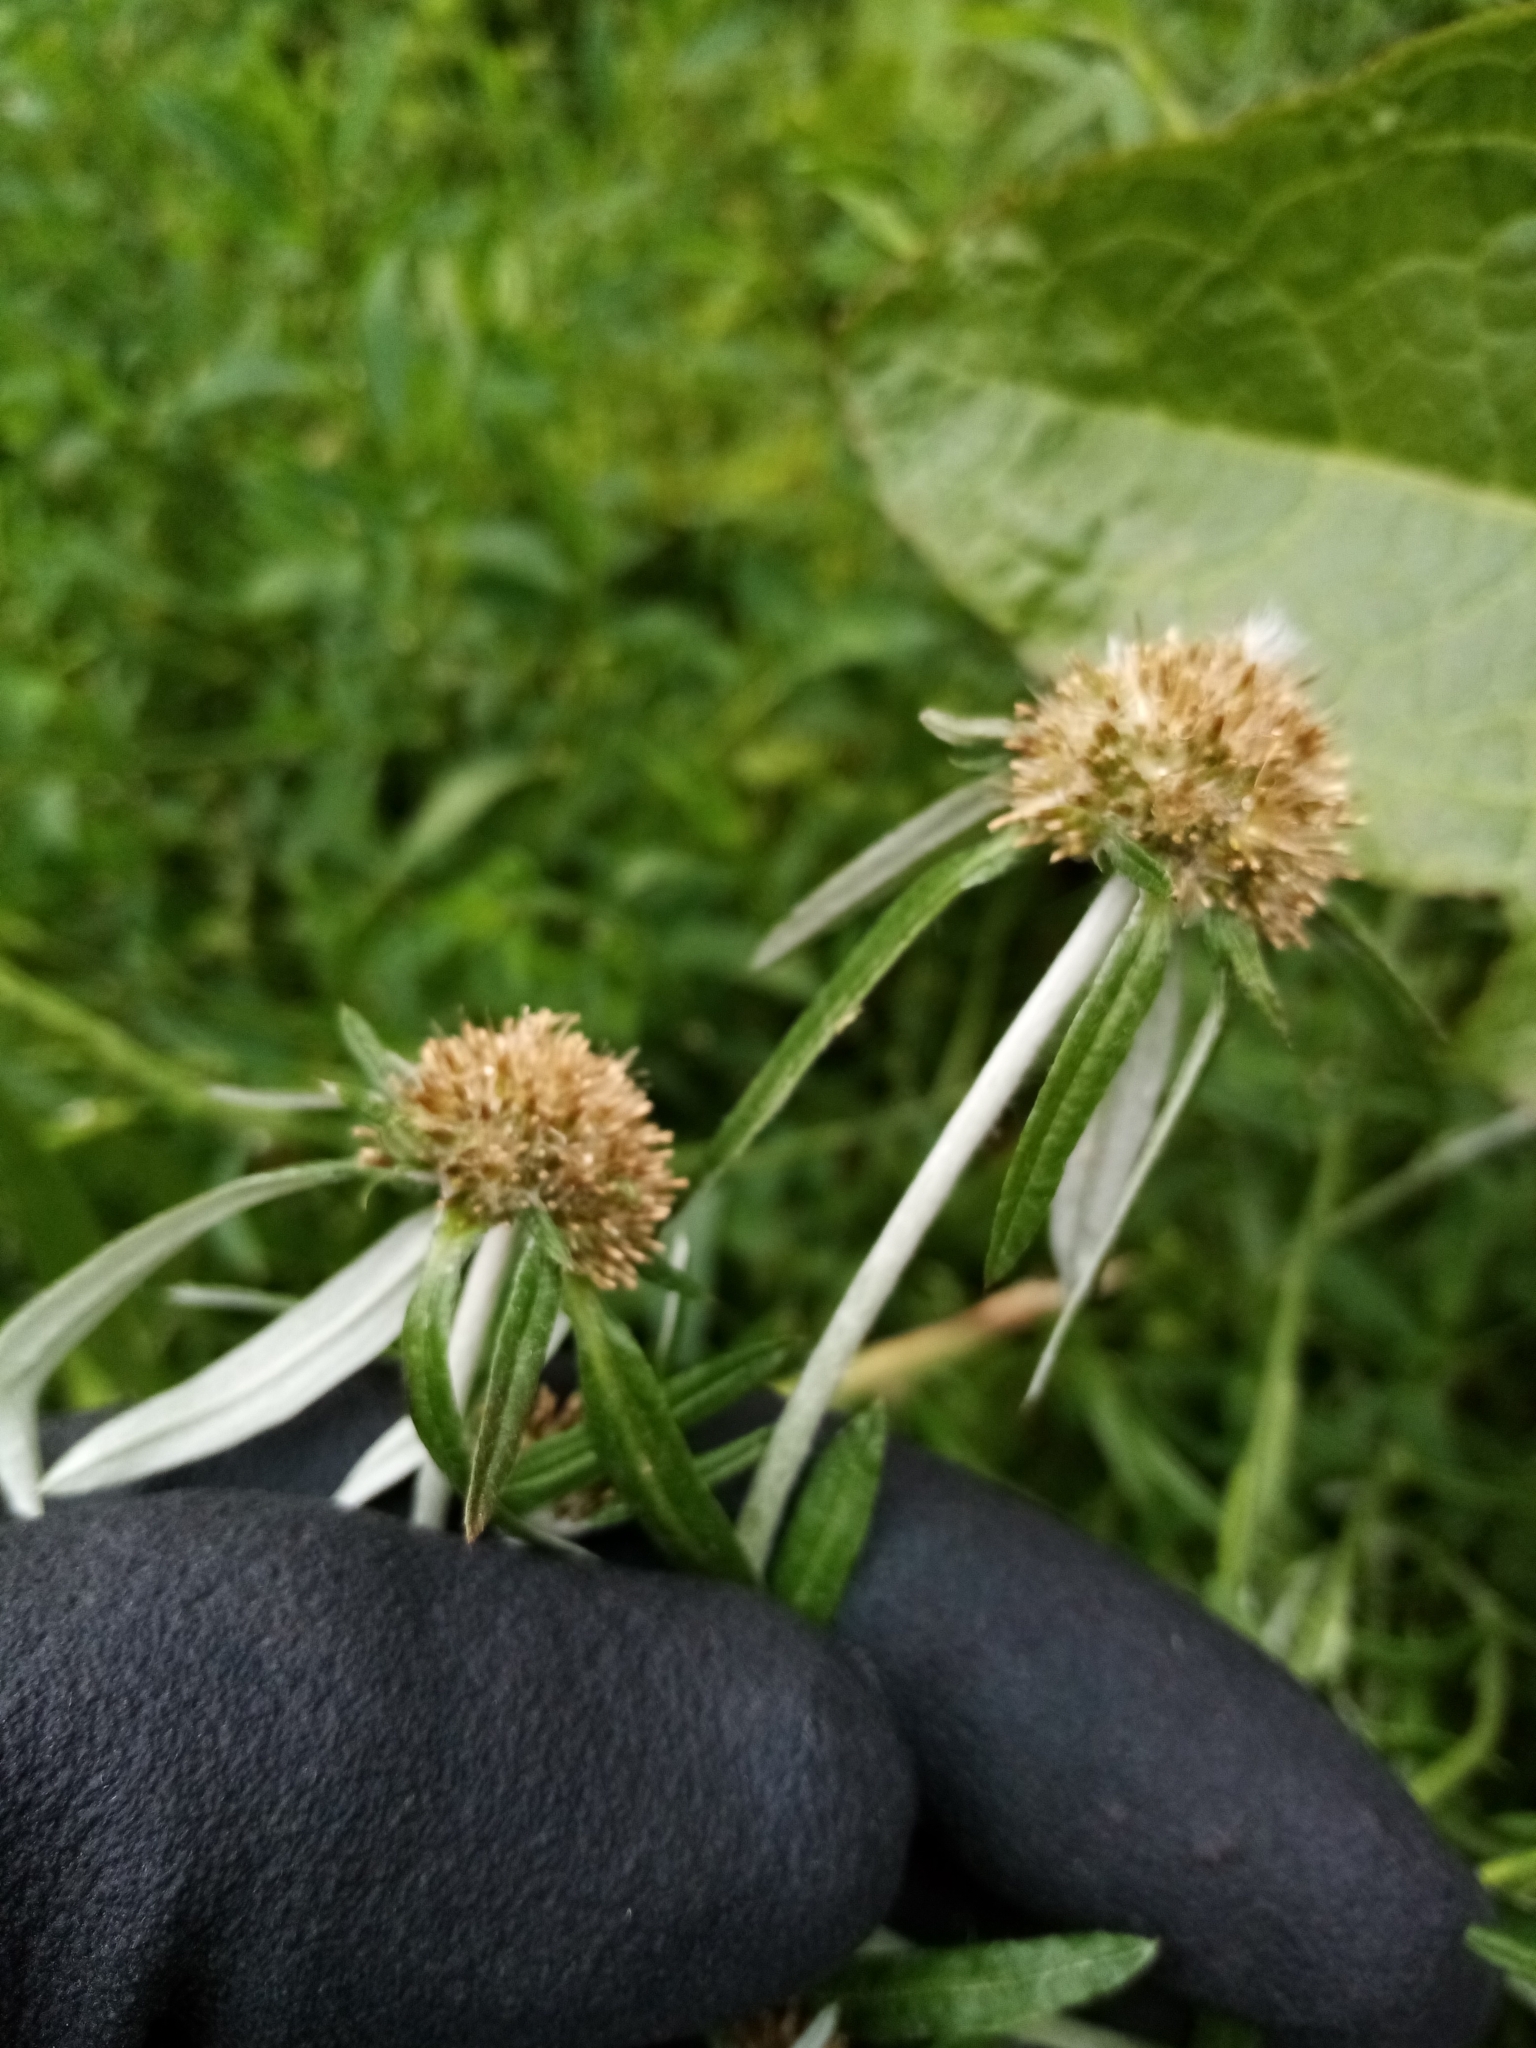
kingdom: Plantae
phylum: Tracheophyta
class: Magnoliopsida
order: Asterales
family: Asteraceae
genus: Euchiton
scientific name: Euchiton sphaericus
